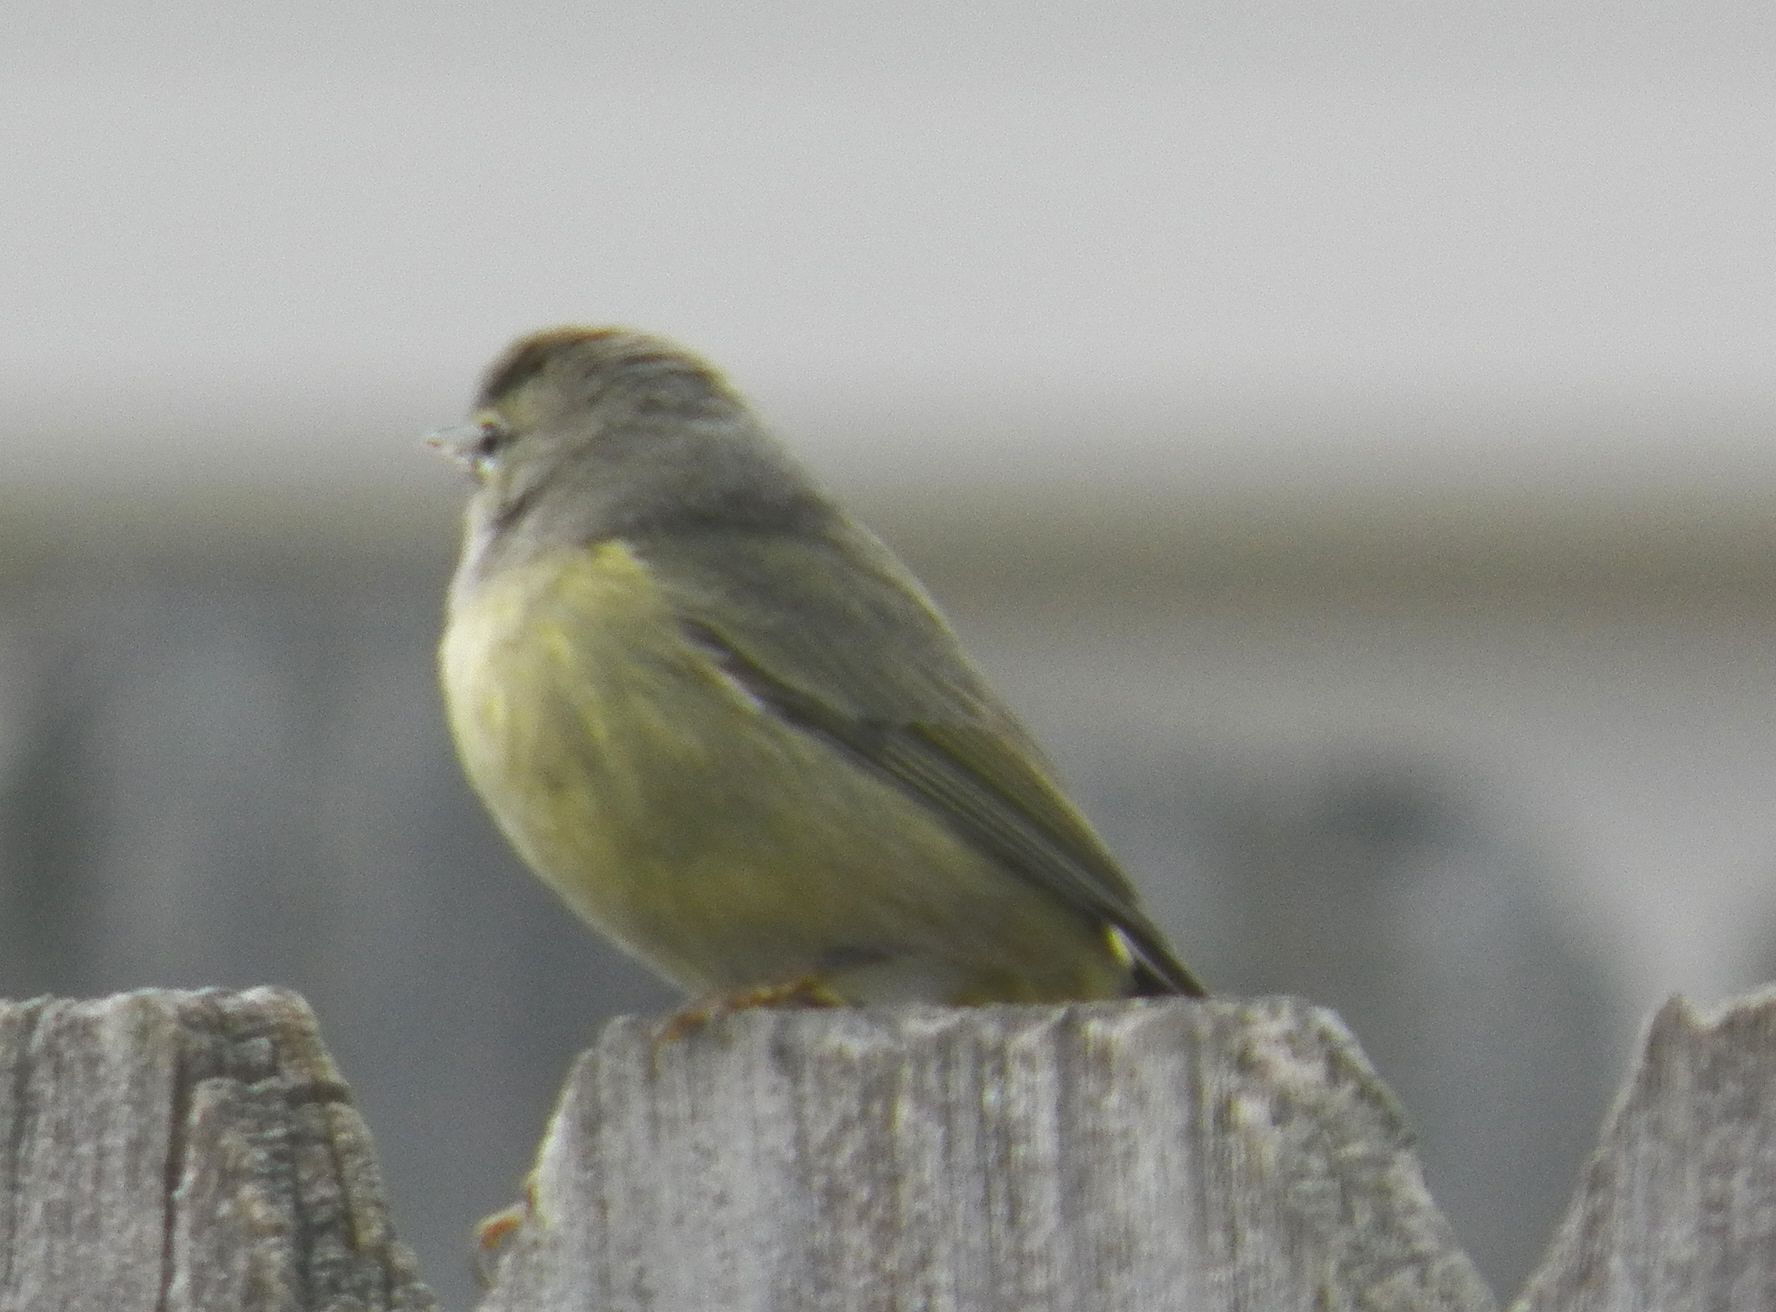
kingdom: Animalia
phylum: Chordata
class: Aves
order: Passeriformes
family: Parulidae
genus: Leiothlypis
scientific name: Leiothlypis celata
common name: Orange-crowned warbler
